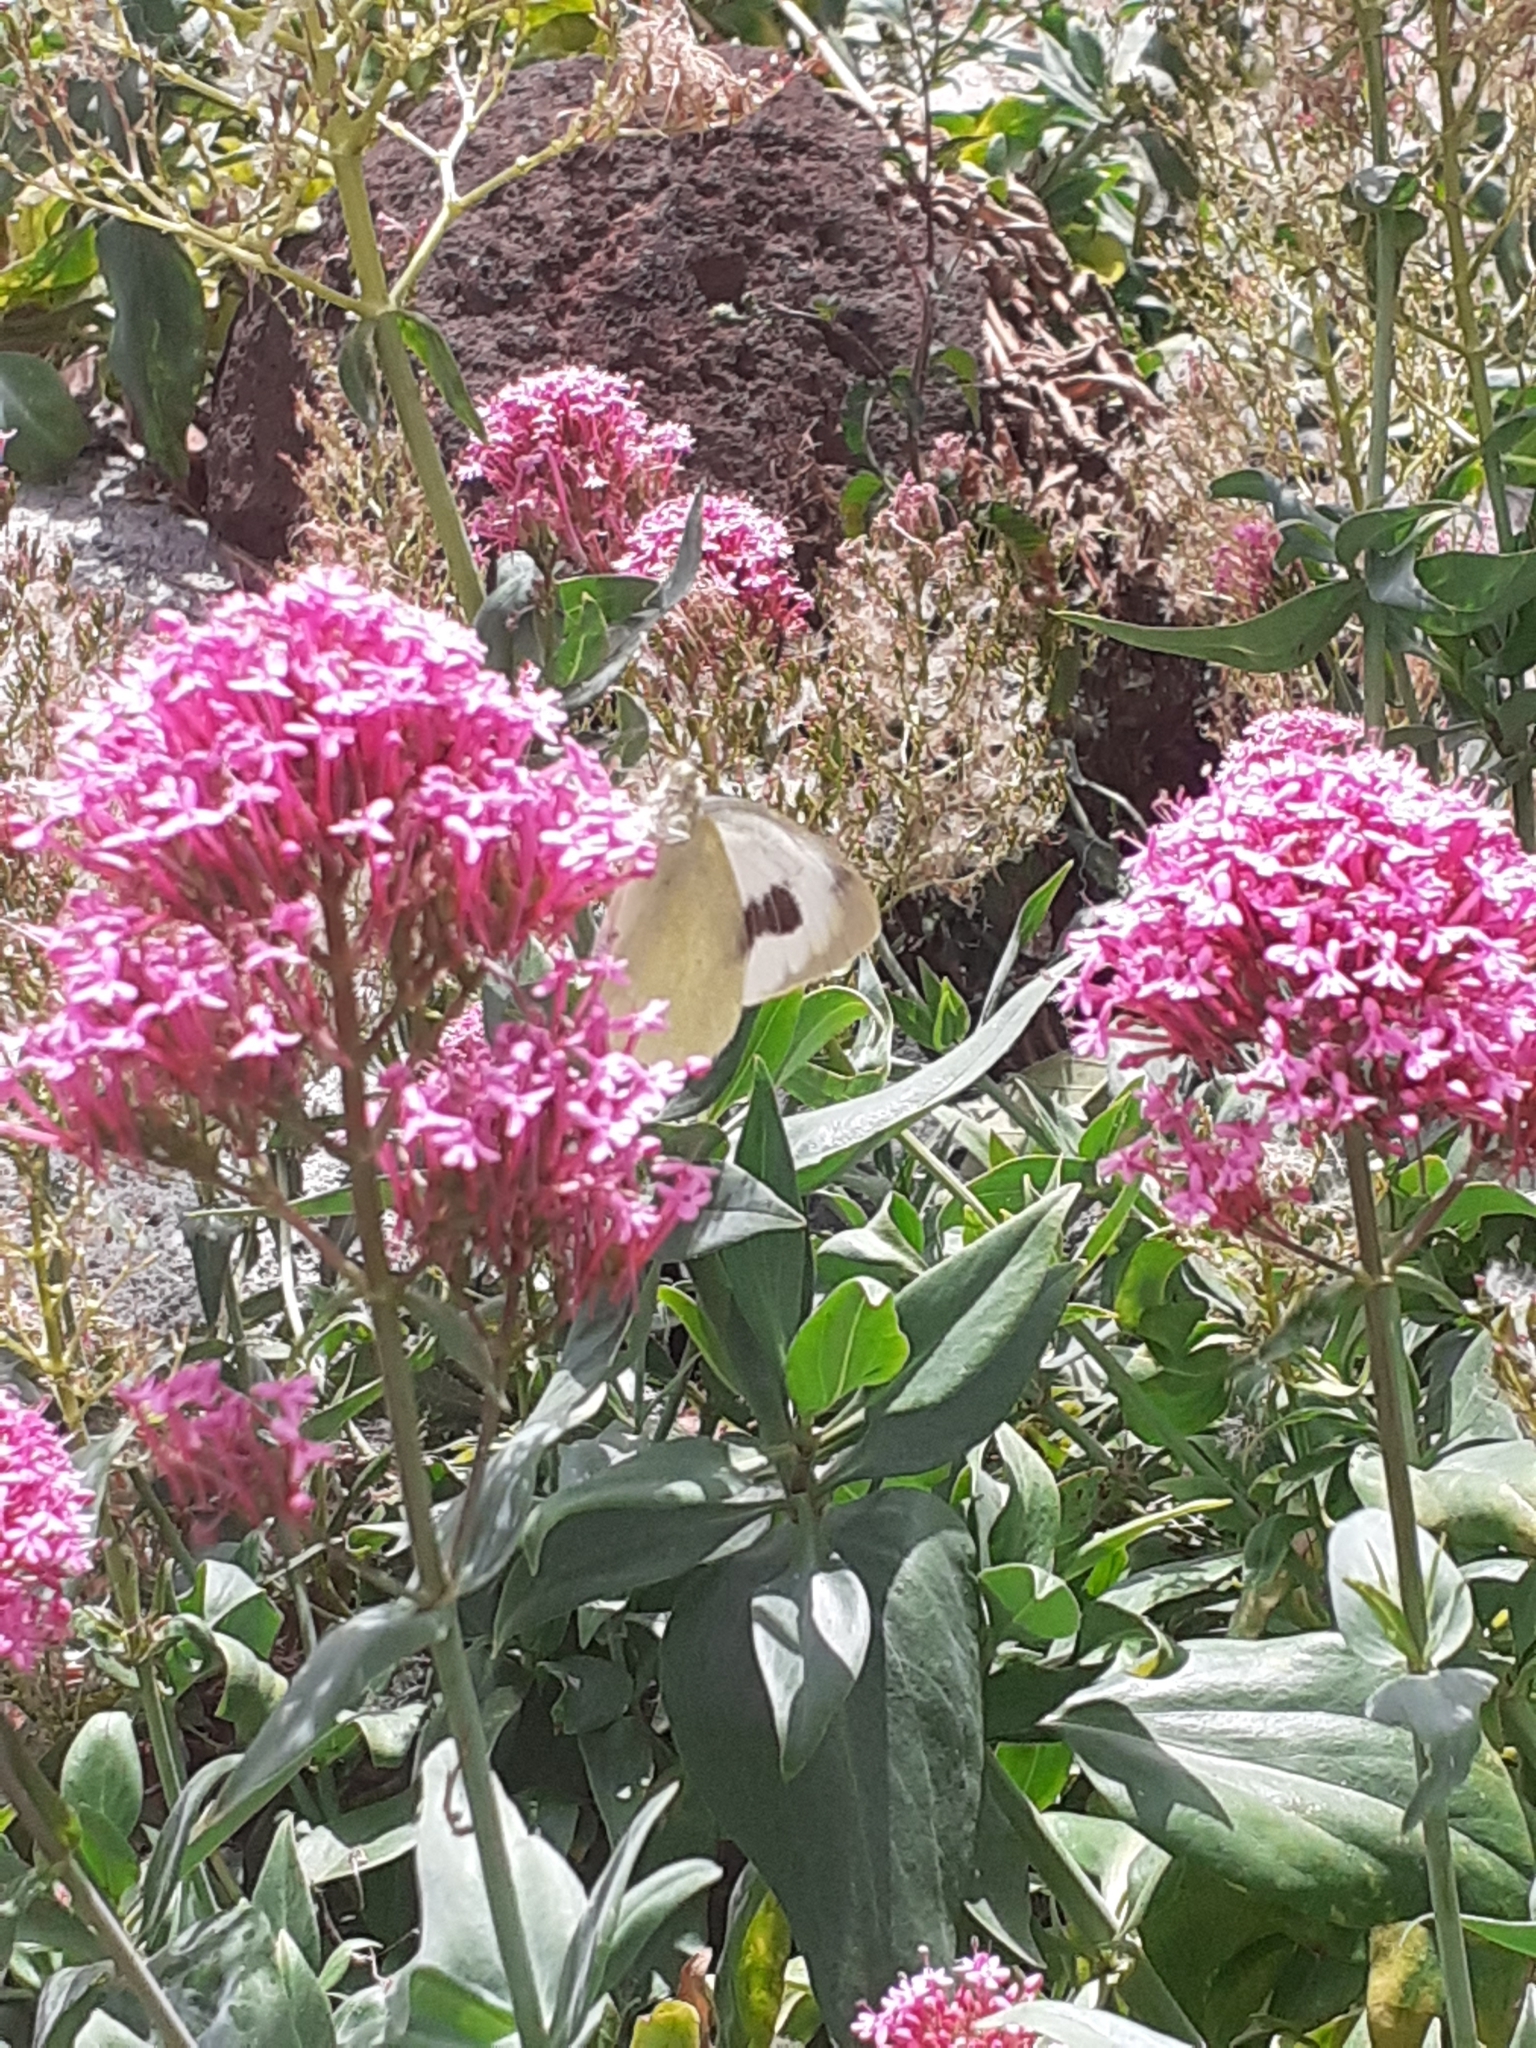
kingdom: Animalia
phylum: Arthropoda
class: Insecta
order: Lepidoptera
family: Pieridae
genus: Pieris
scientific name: Pieris cheiranthi
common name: Canary islands large white
